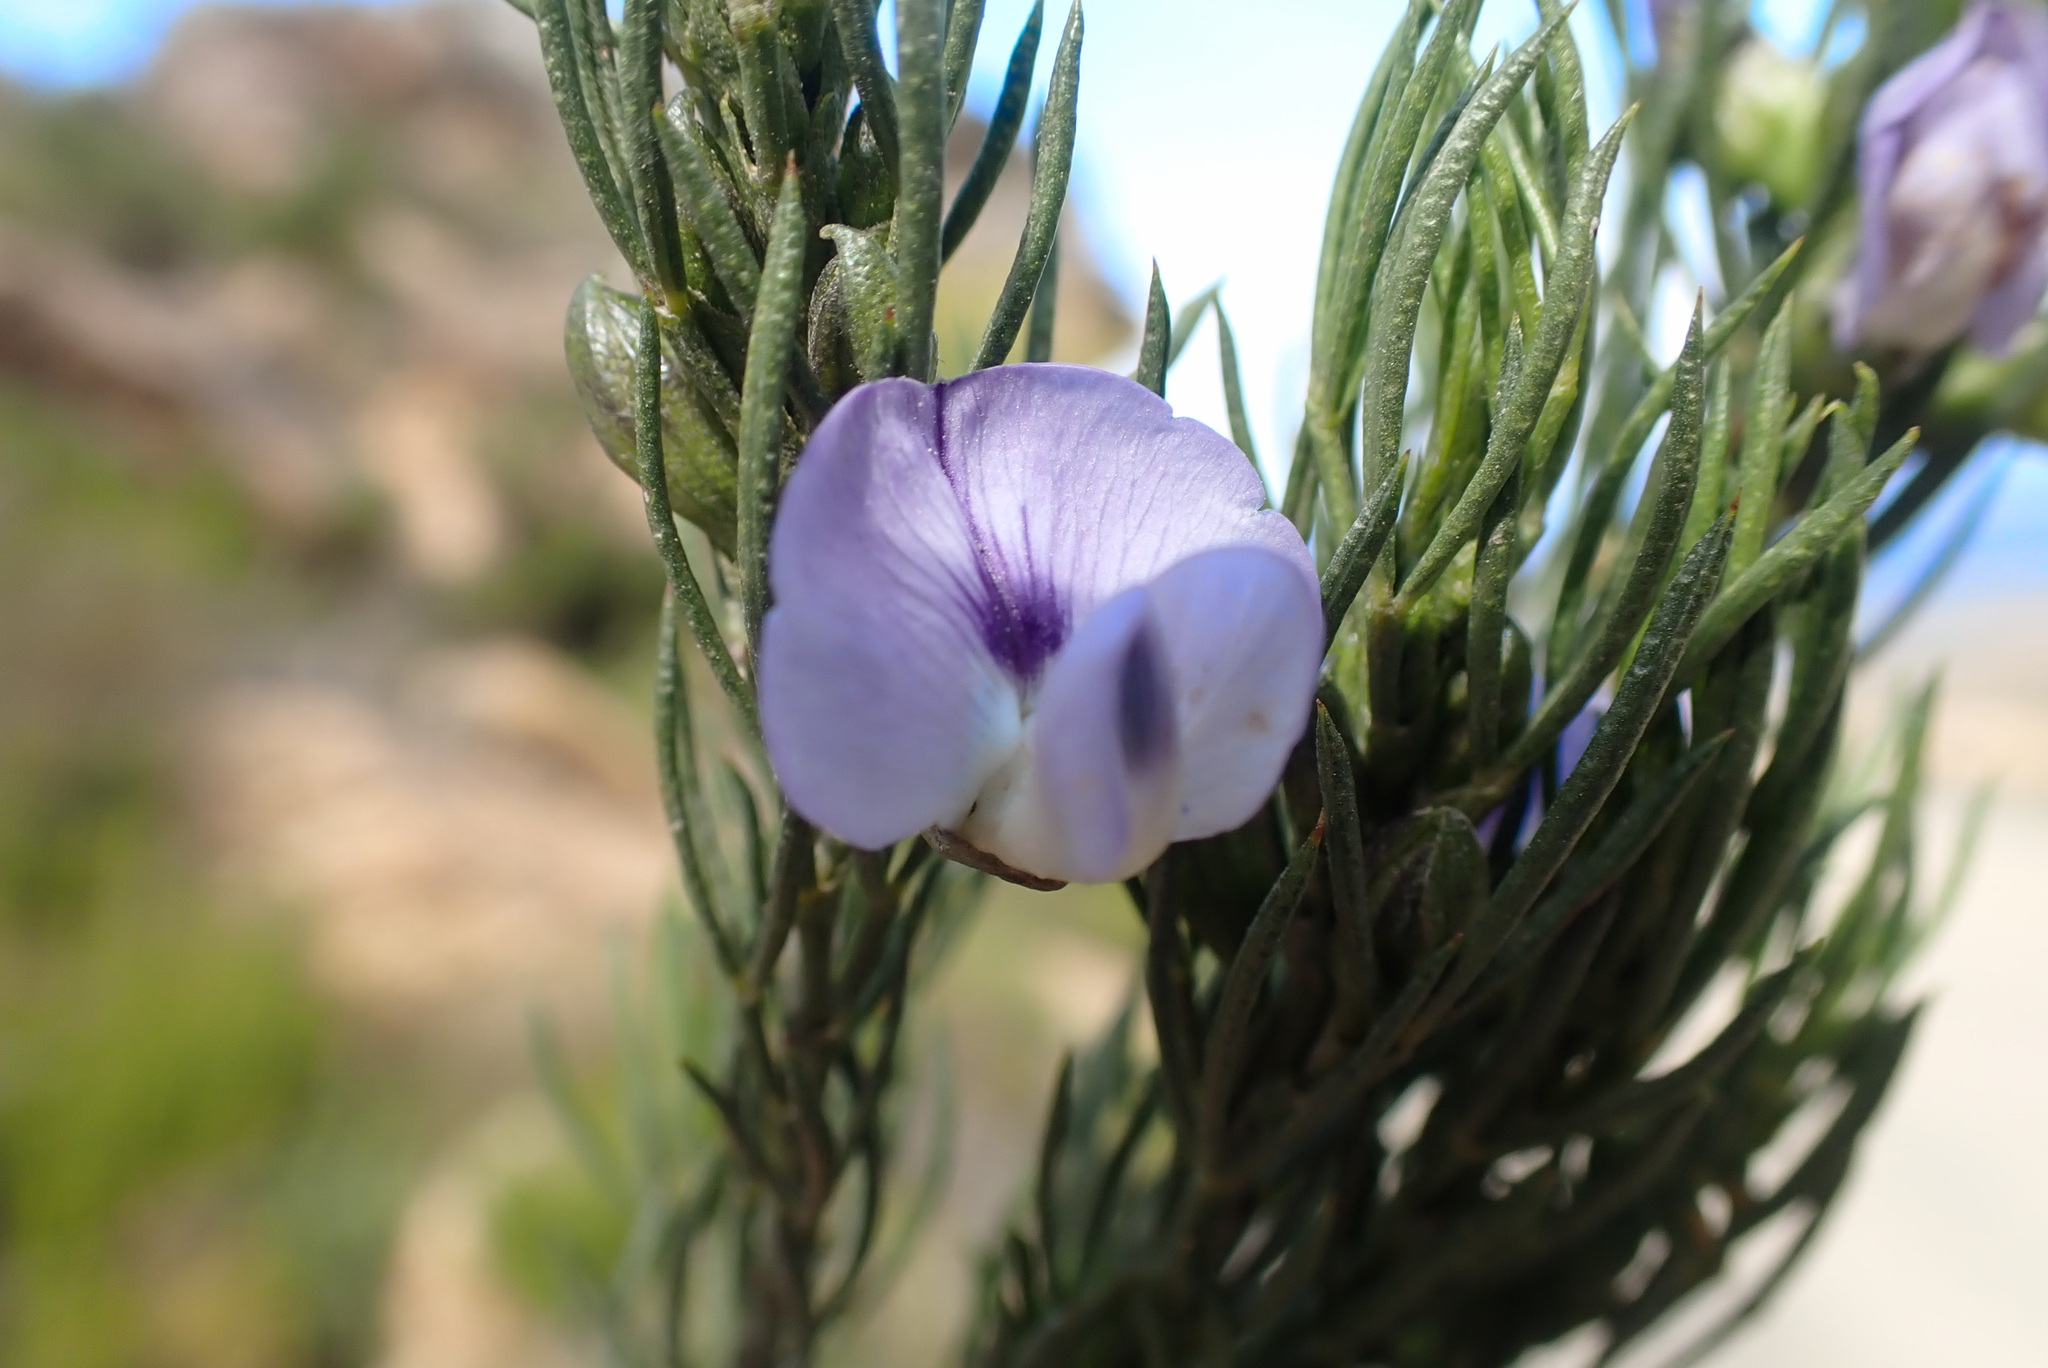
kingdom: Plantae
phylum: Tracheophyta
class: Magnoliopsida
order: Fabales
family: Fabaceae
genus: Psoralea
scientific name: Psoralea sordida
